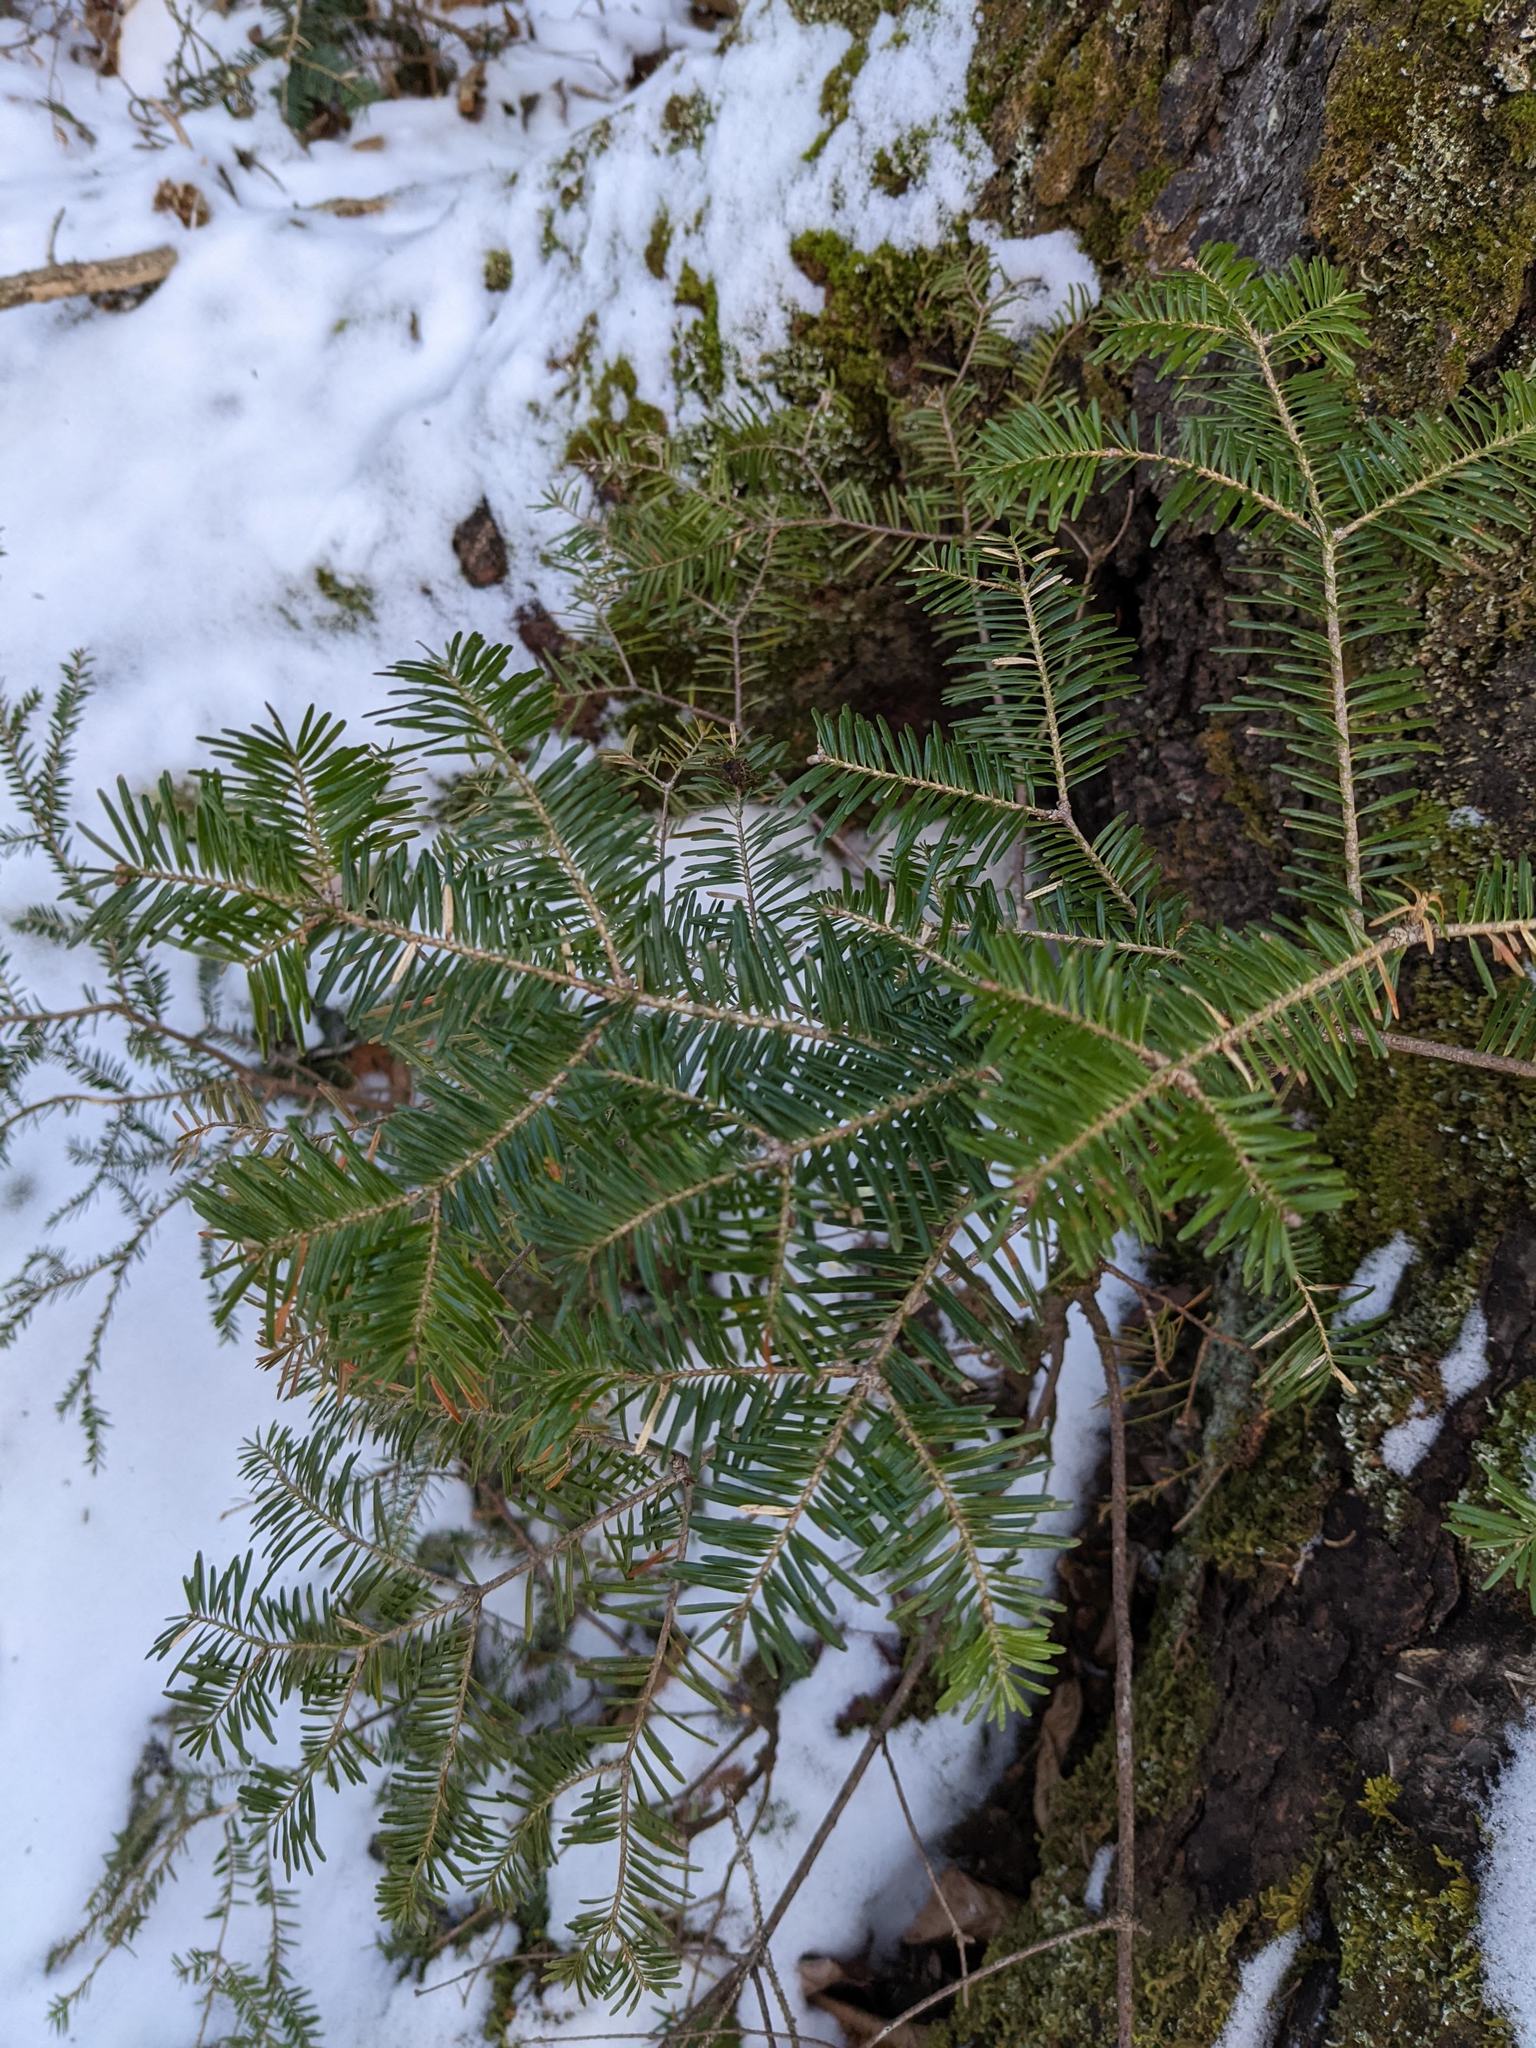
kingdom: Plantae
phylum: Tracheophyta
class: Pinopsida
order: Pinales
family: Pinaceae
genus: Abies
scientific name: Abies balsamea
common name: Balsam fir
